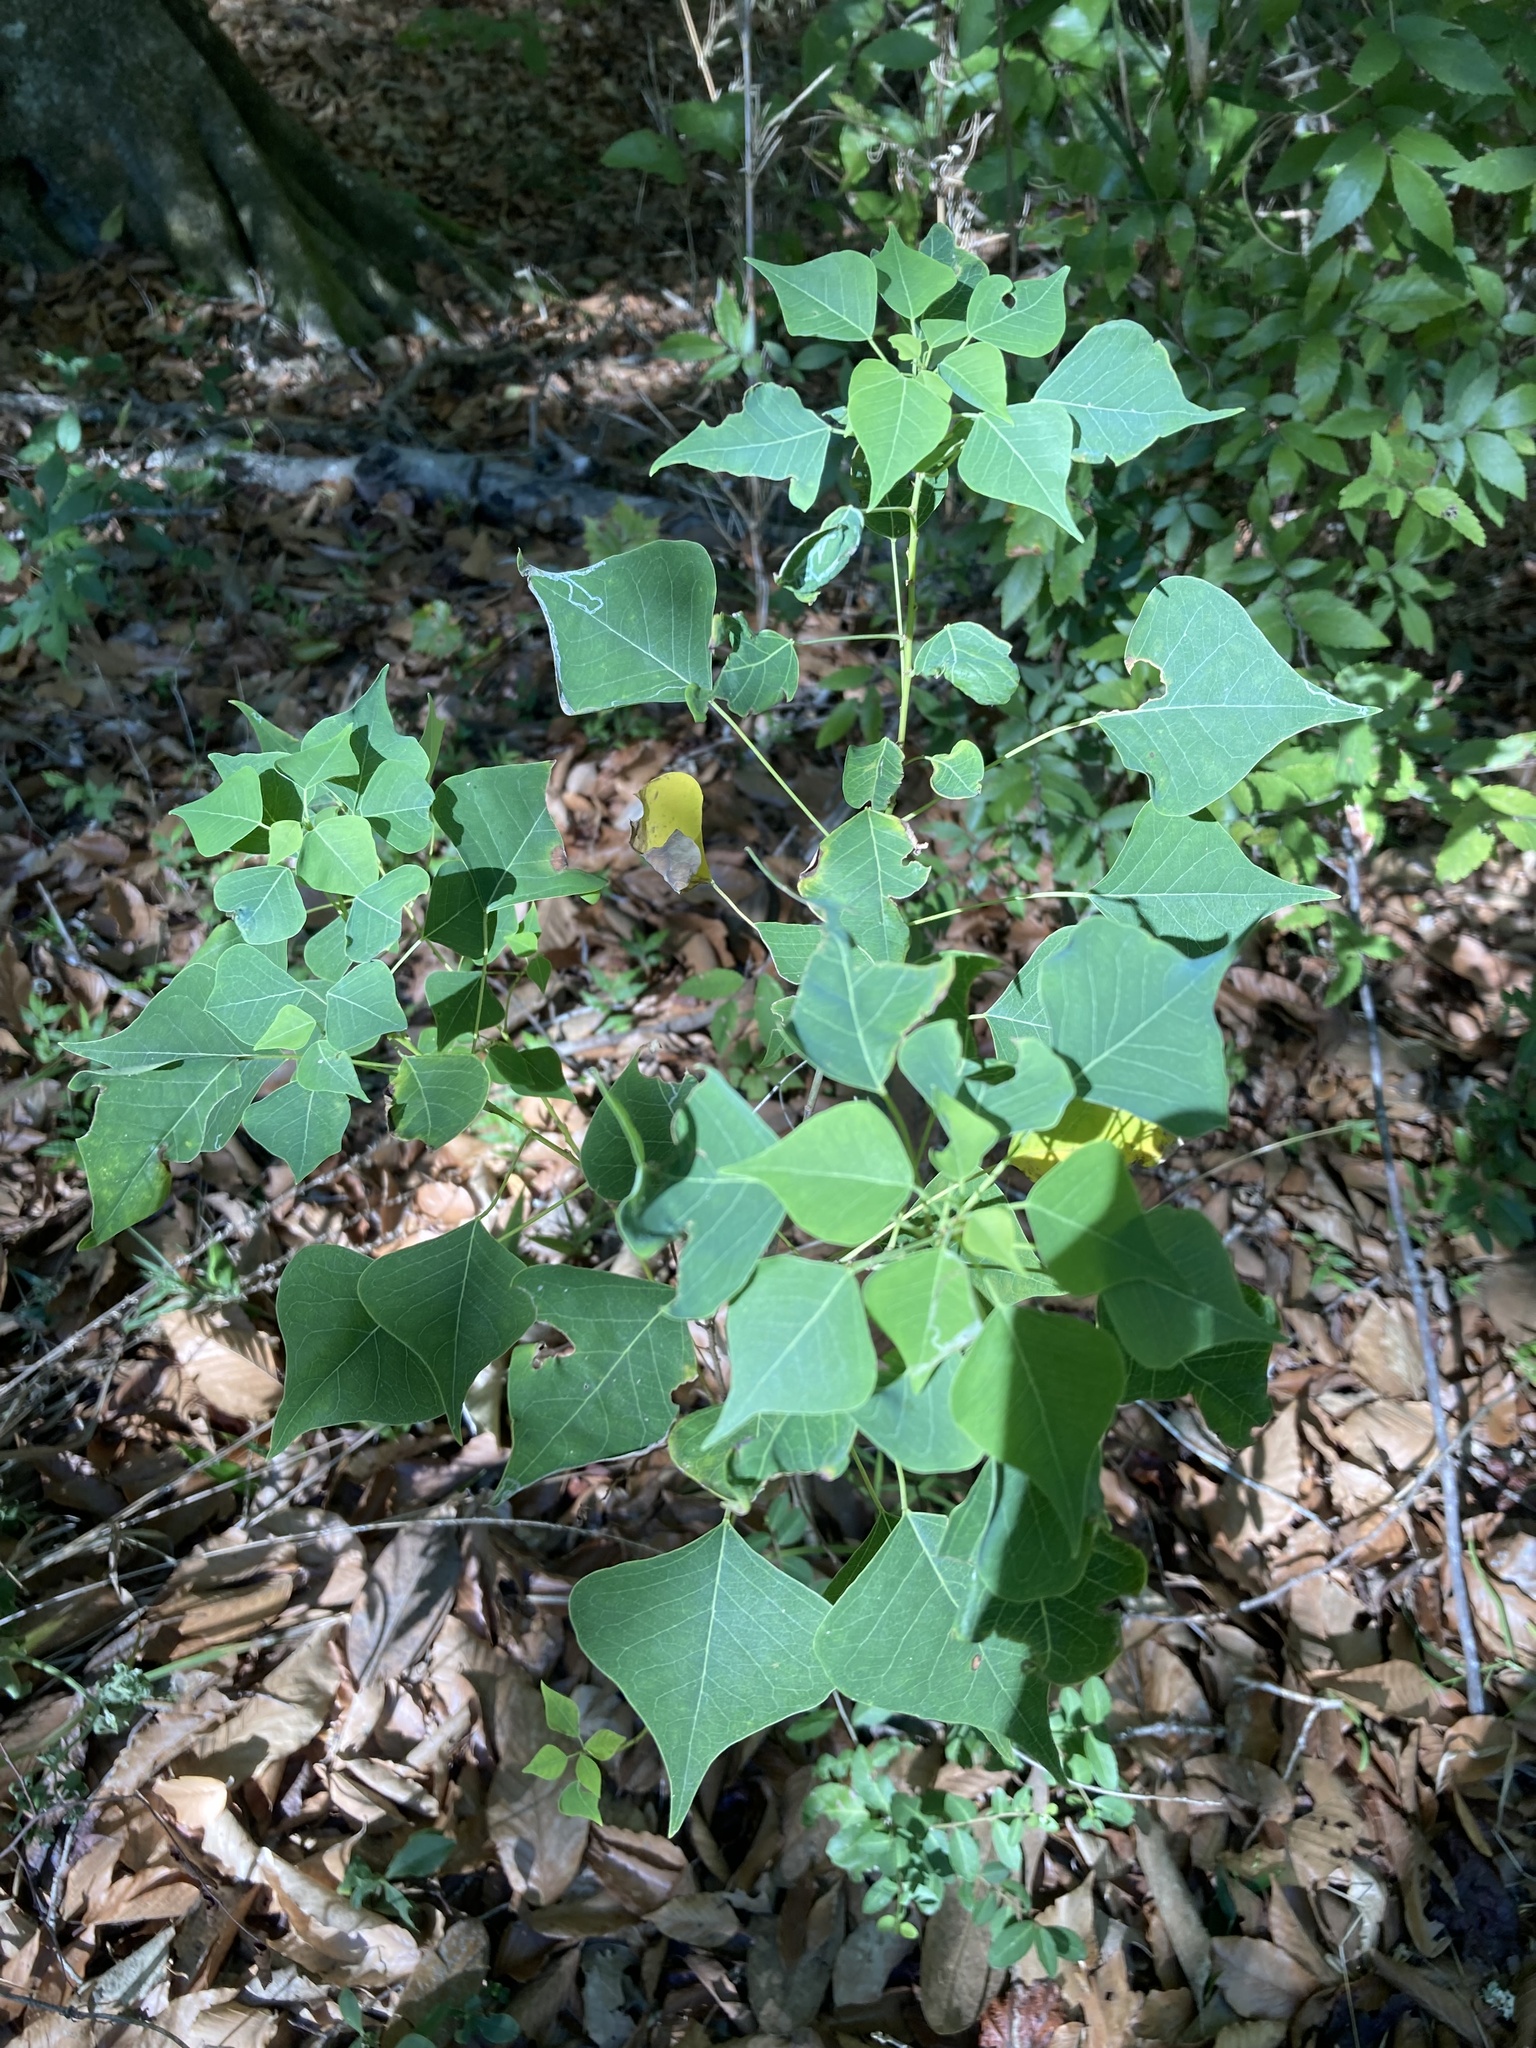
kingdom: Plantae
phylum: Tracheophyta
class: Magnoliopsida
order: Malpighiales
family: Euphorbiaceae
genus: Triadica
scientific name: Triadica sebifera
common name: Chinese tallow
